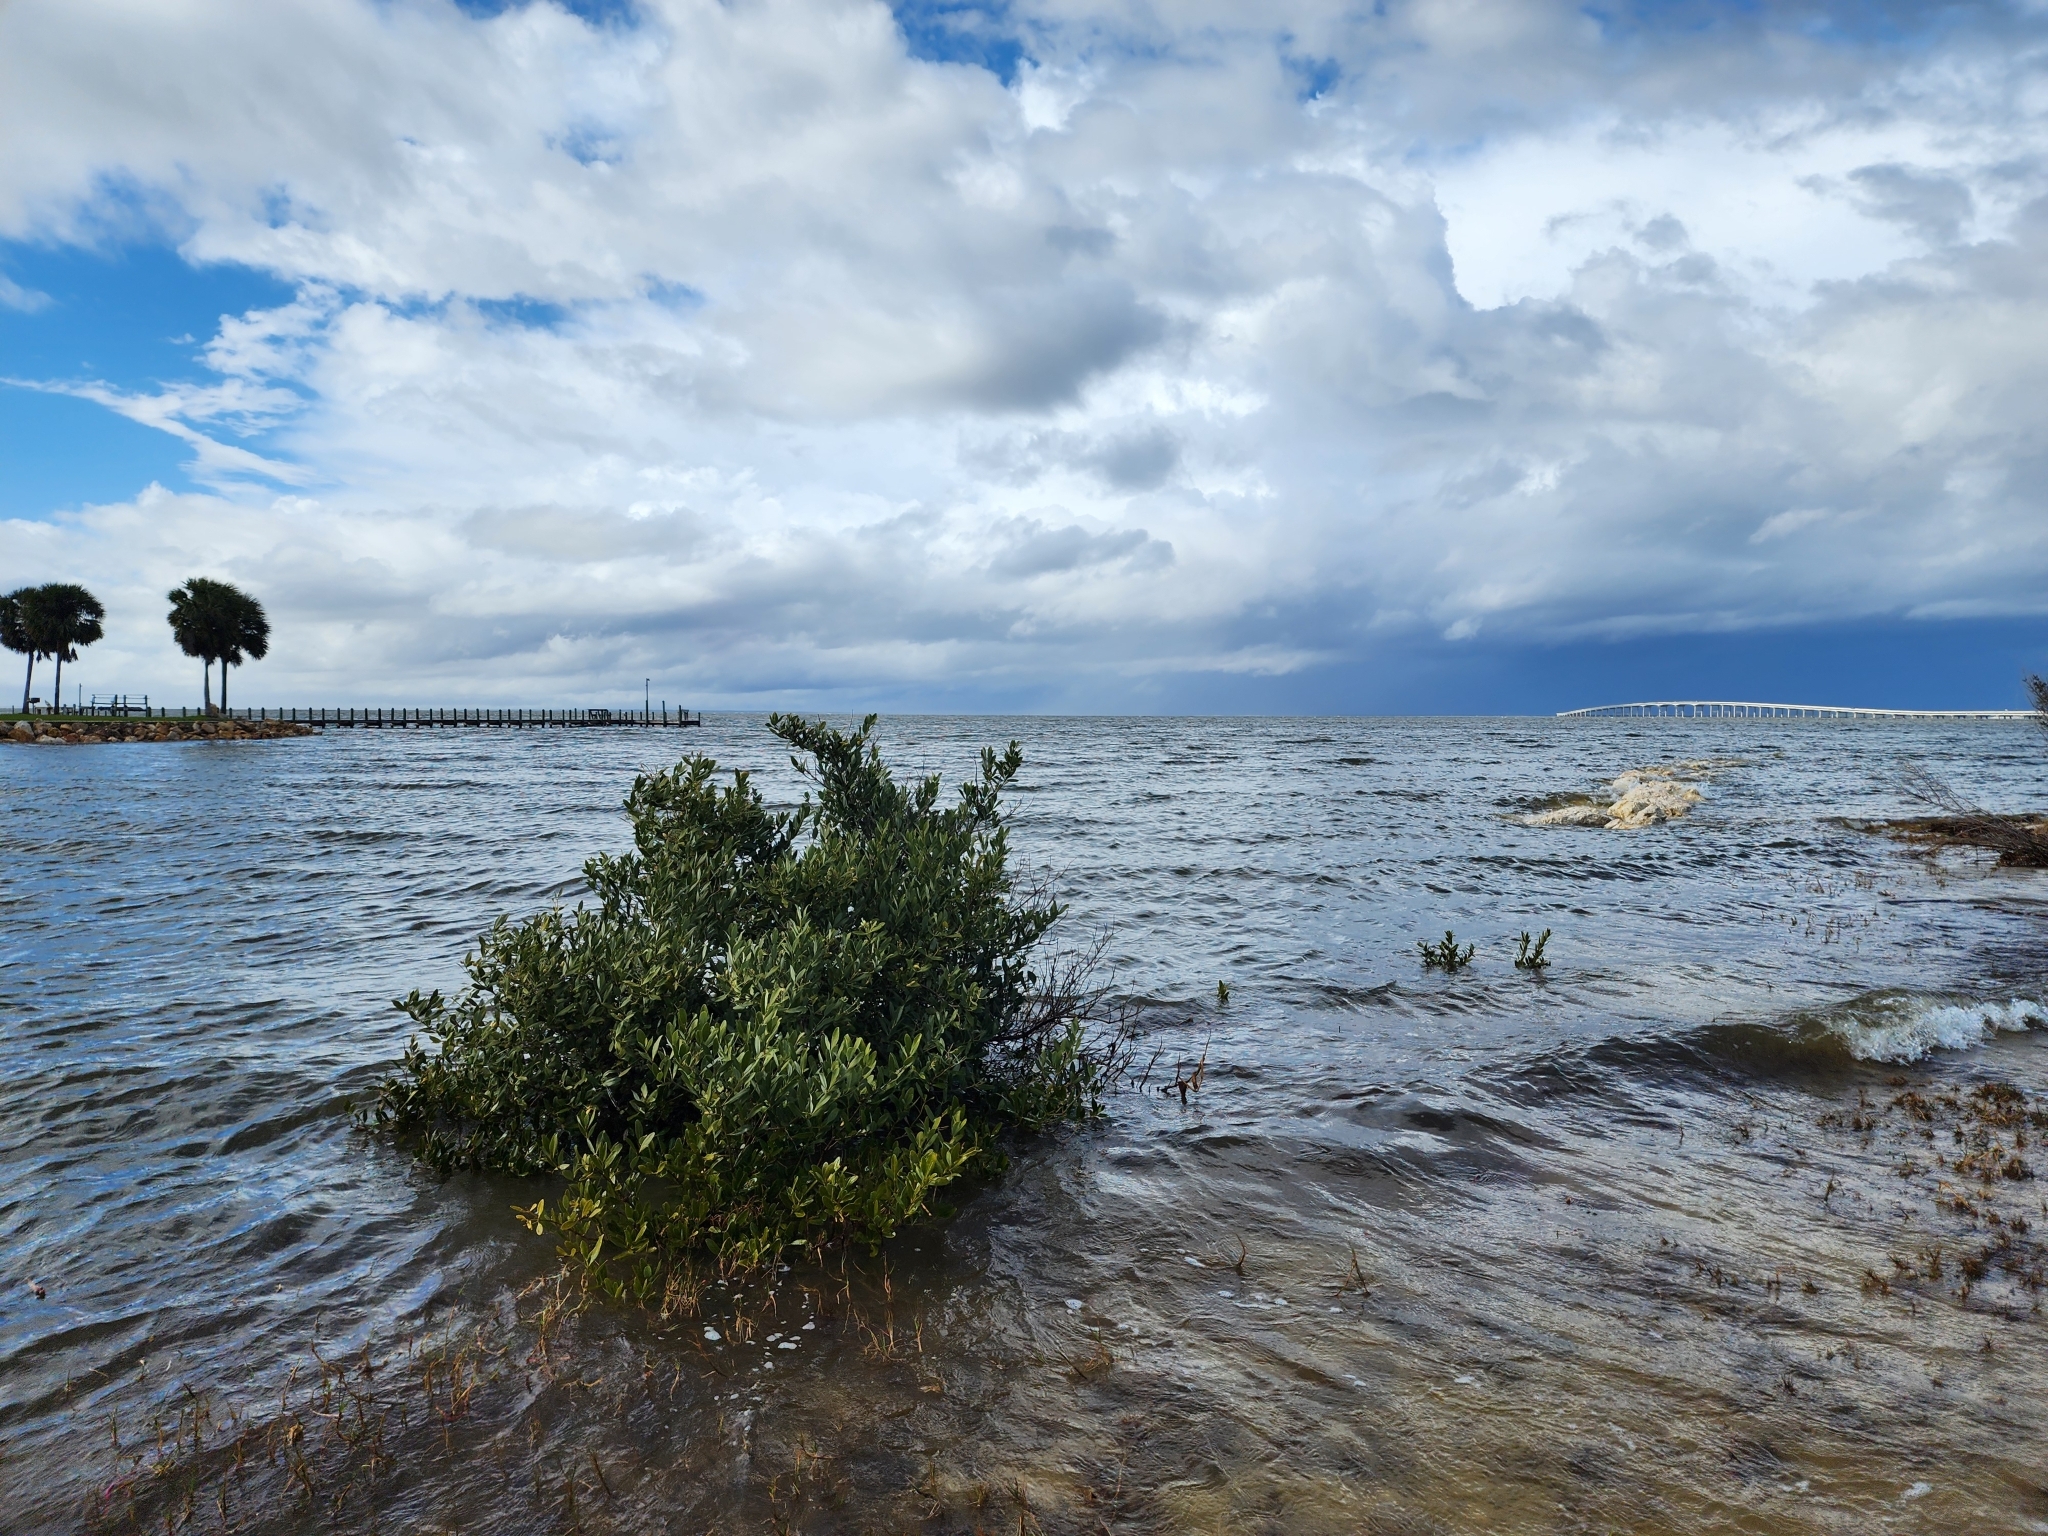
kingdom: Plantae
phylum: Tracheophyta
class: Magnoliopsida
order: Lamiales
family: Acanthaceae
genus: Avicennia
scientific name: Avicennia germinans
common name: Black mangrove
